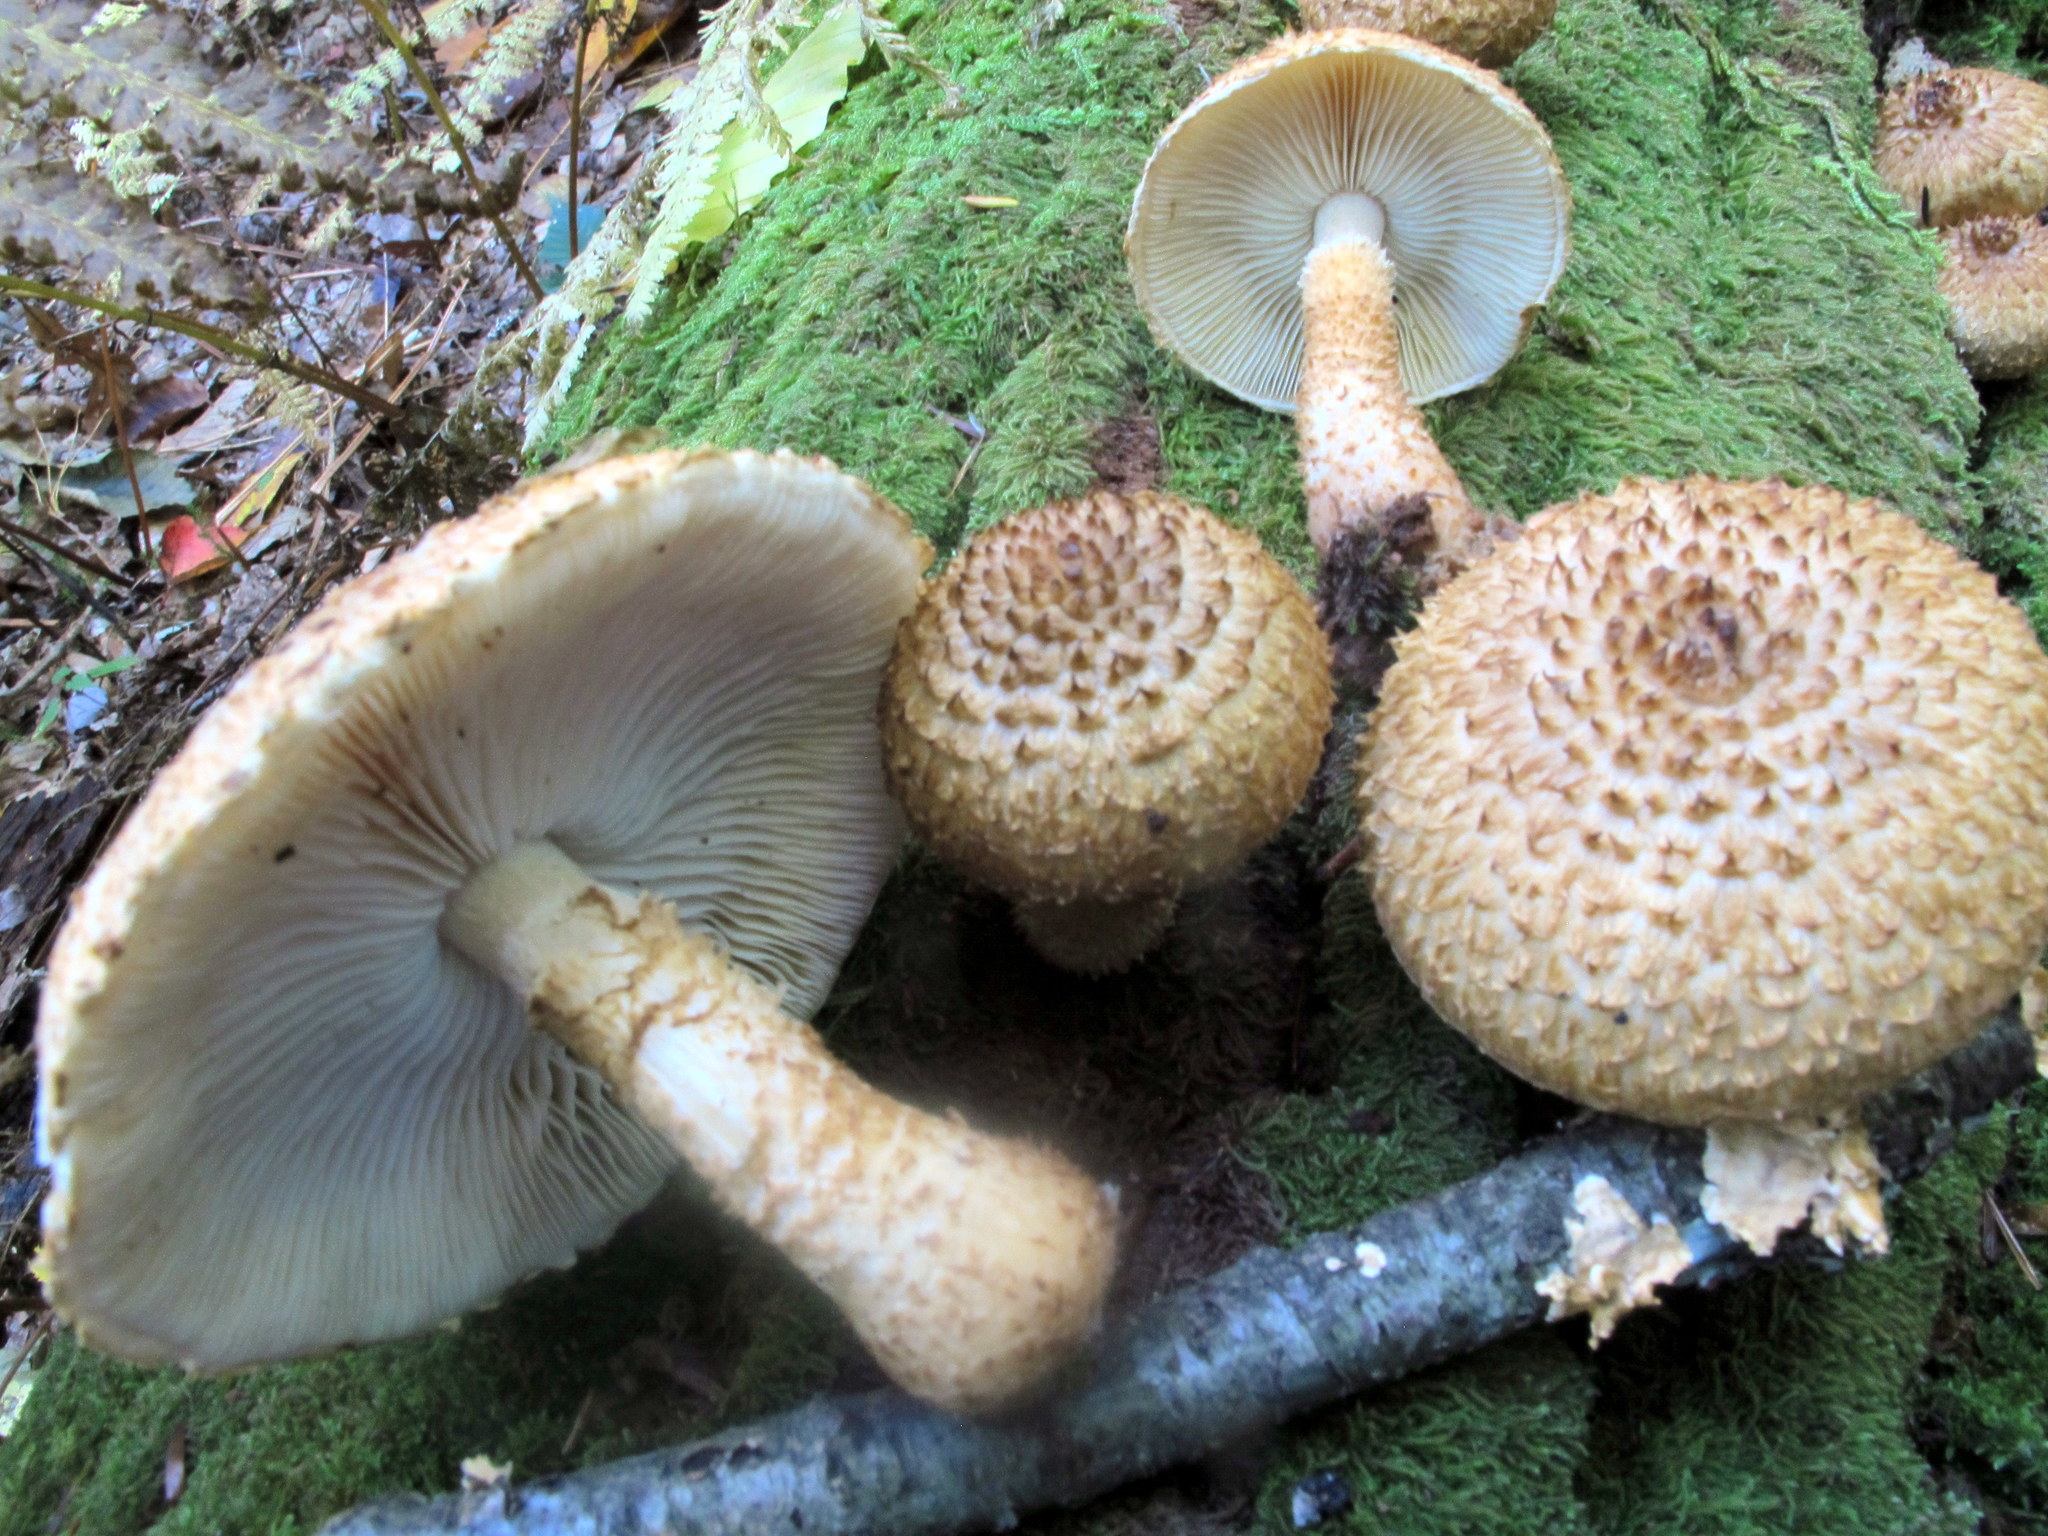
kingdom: Fungi
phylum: Basidiomycota
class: Agaricomycetes
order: Agaricales
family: Agaricaceae
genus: Leucopholiota
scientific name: Leucopholiota decorosa
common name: Decorated pholiota
